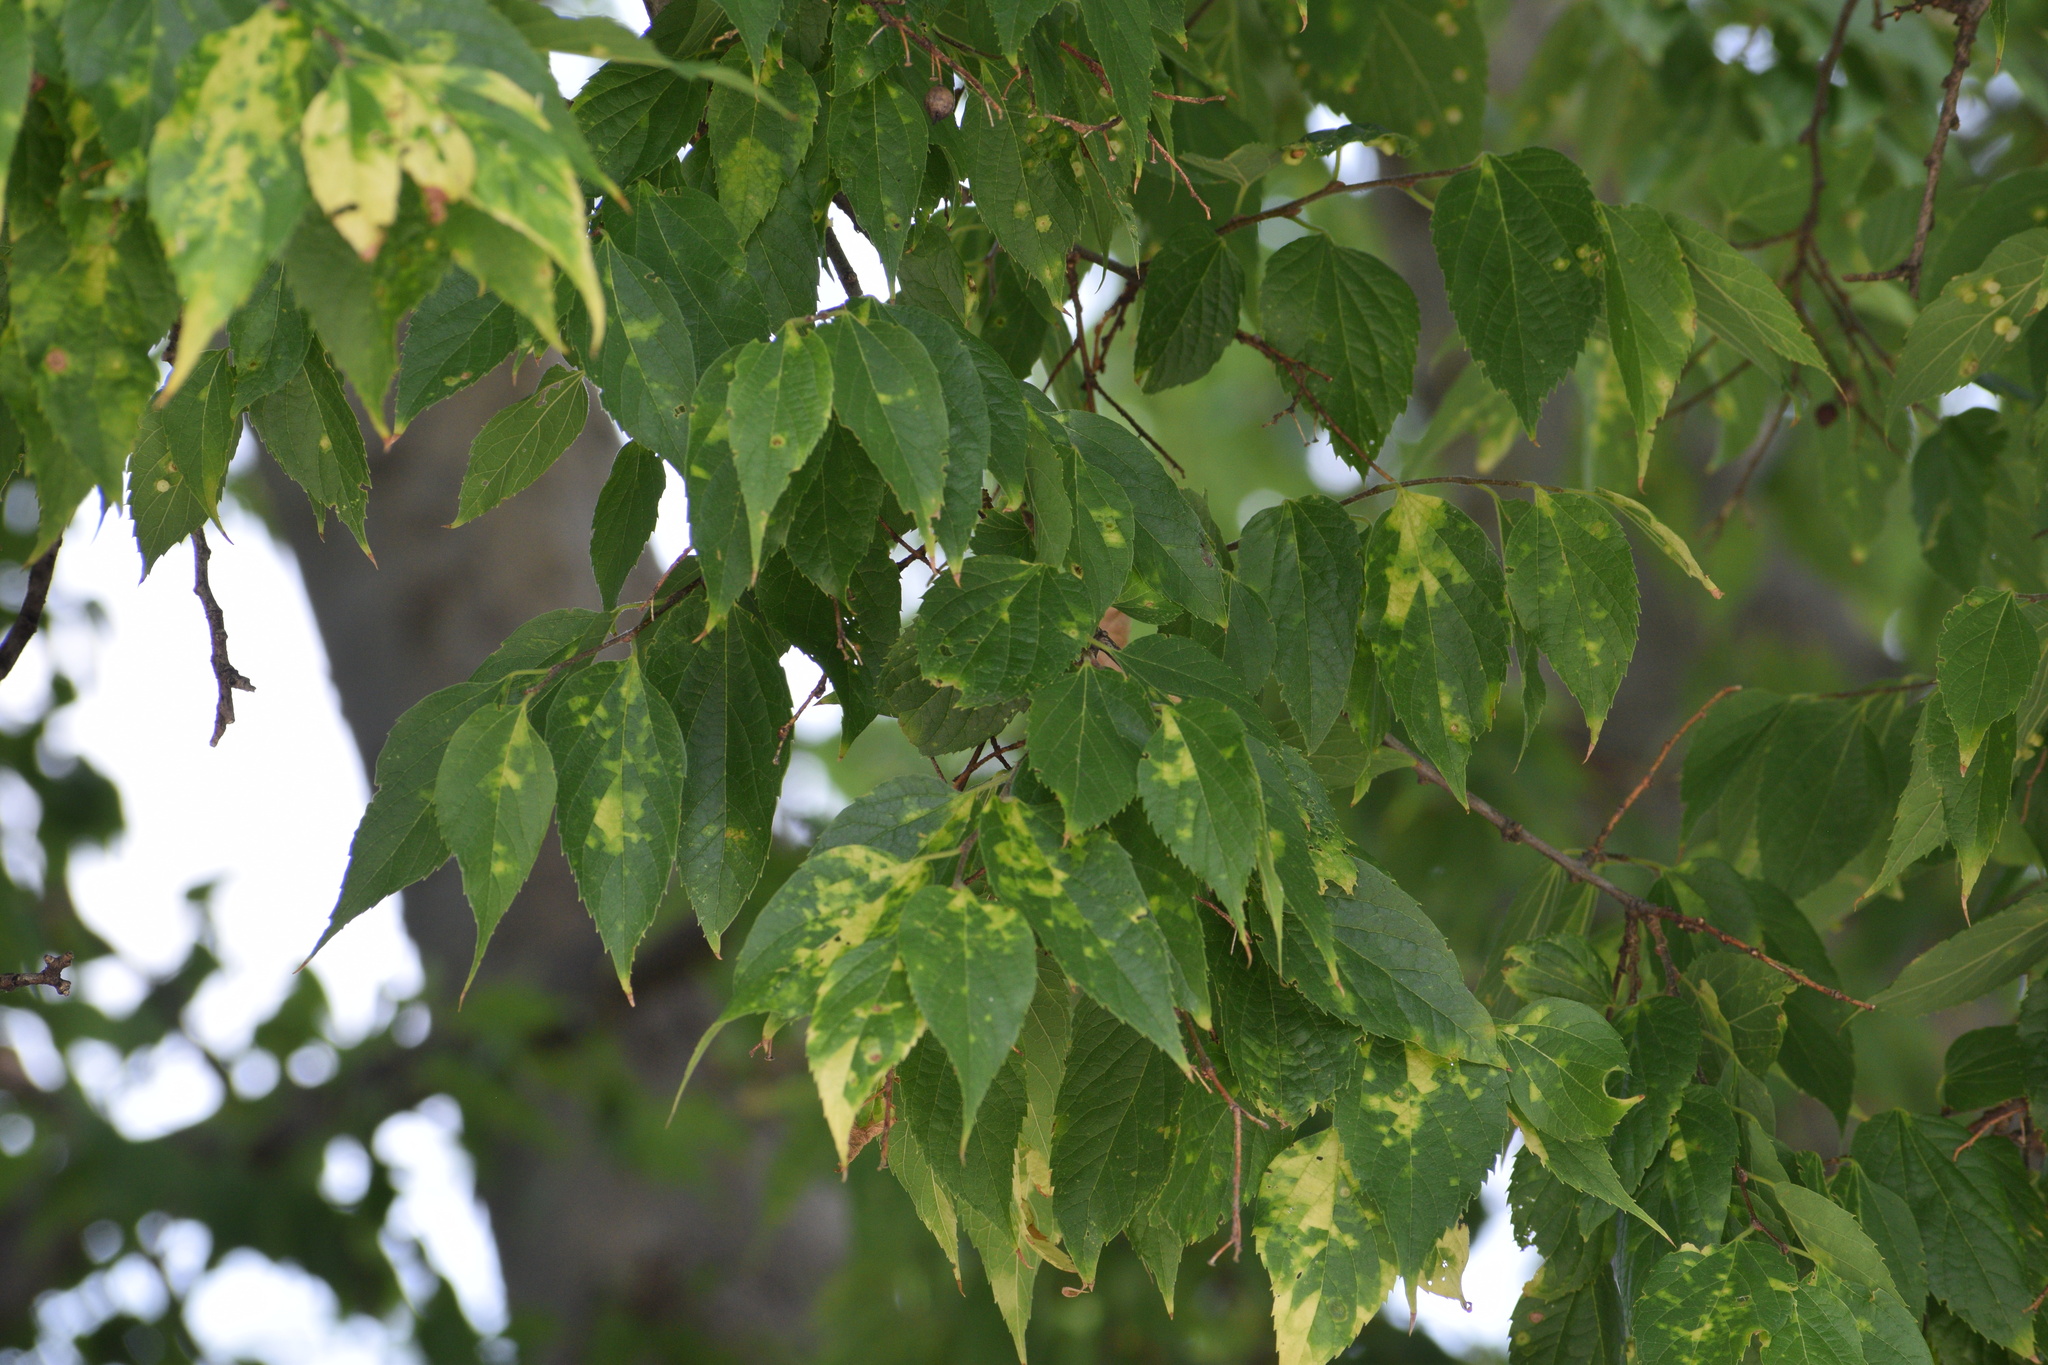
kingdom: Animalia
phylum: Arthropoda
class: Insecta
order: Hemiptera
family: Aphalaridae
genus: Pachypsylla
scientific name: Pachypsylla celtidismamma
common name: Hackberry nipplegall psyllid
